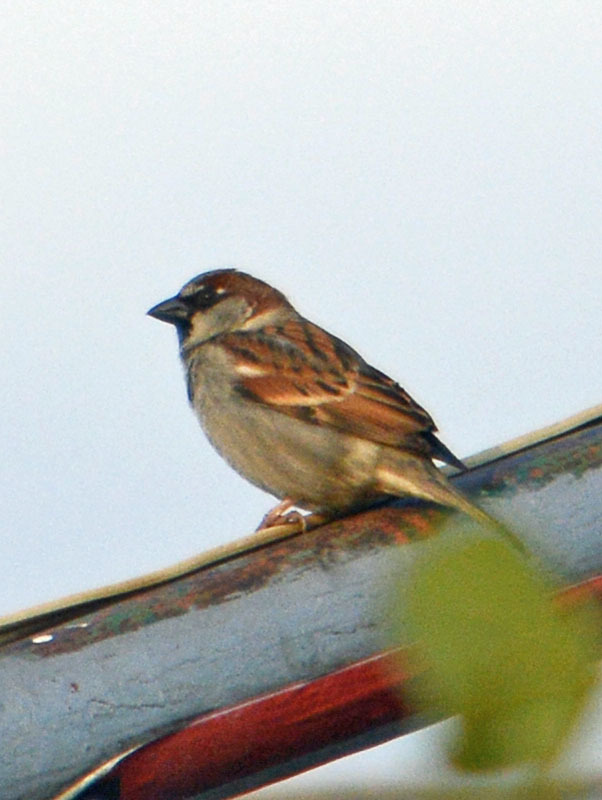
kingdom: Animalia
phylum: Chordata
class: Aves
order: Passeriformes
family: Passeridae
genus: Passer
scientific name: Passer domesticus
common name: House sparrow
